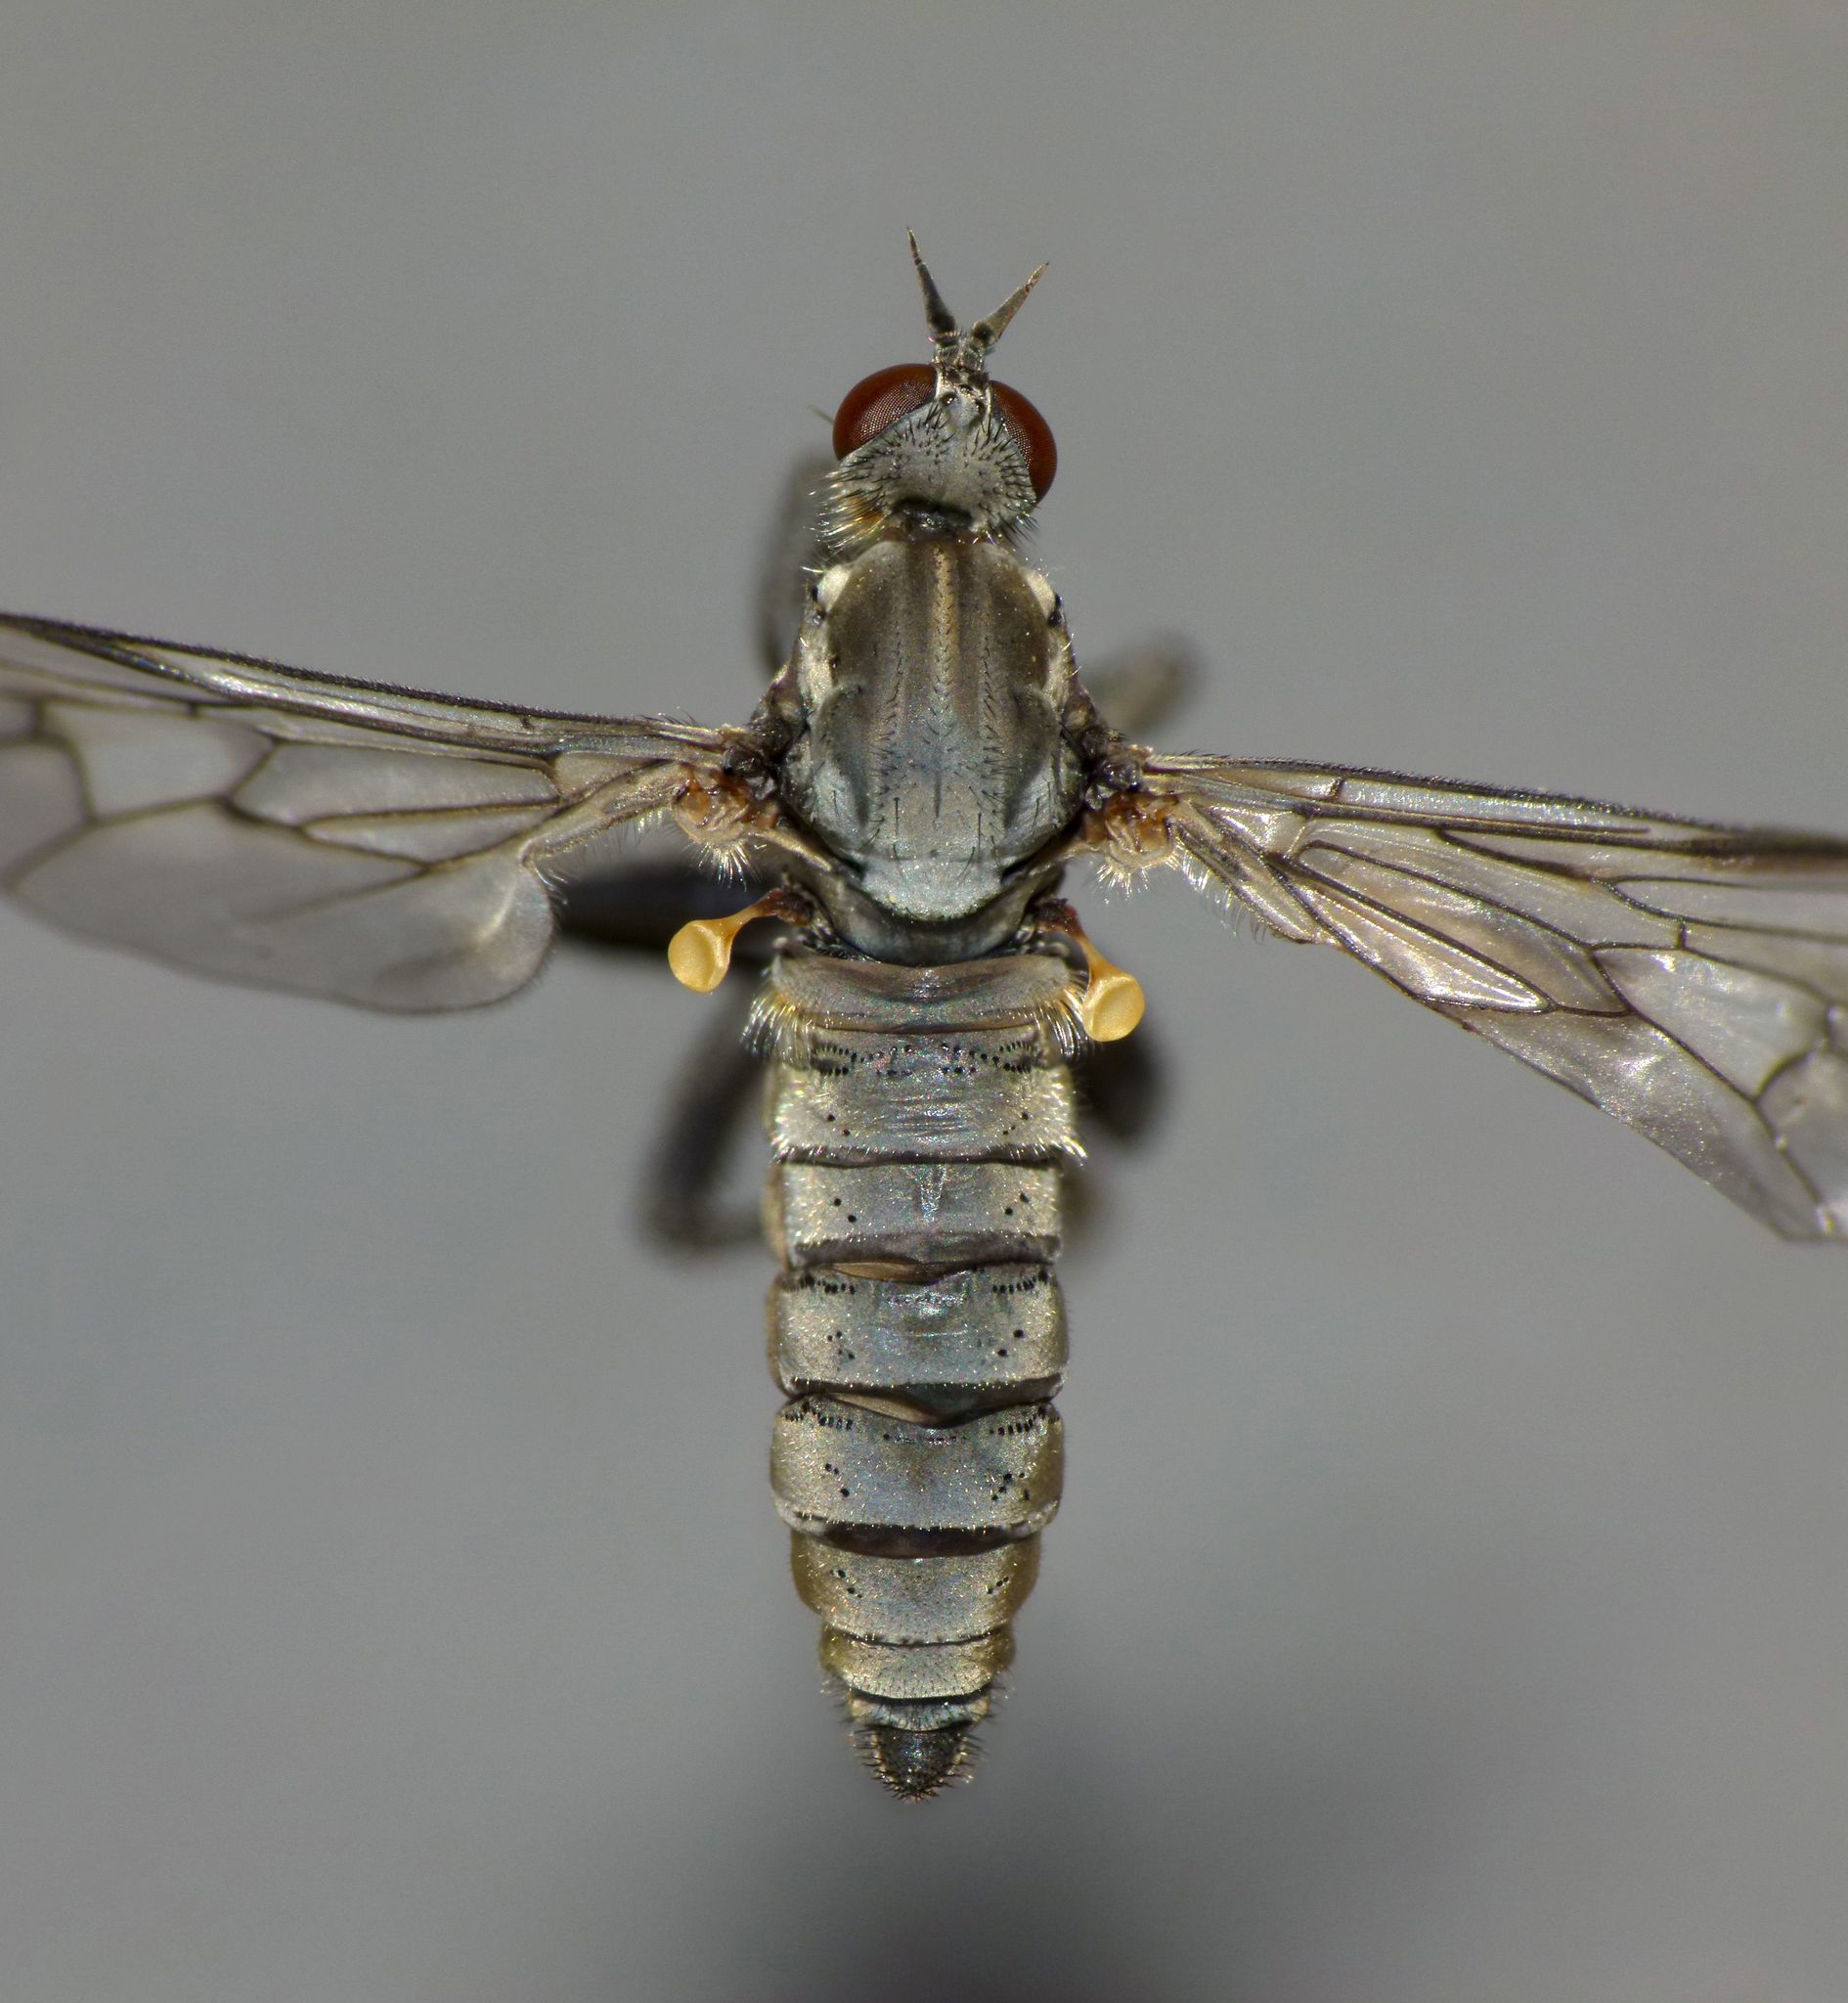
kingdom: Animalia
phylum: Arthropoda
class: Insecta
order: Diptera
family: Empididae
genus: Thinempis
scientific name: Thinempis otakouensis
